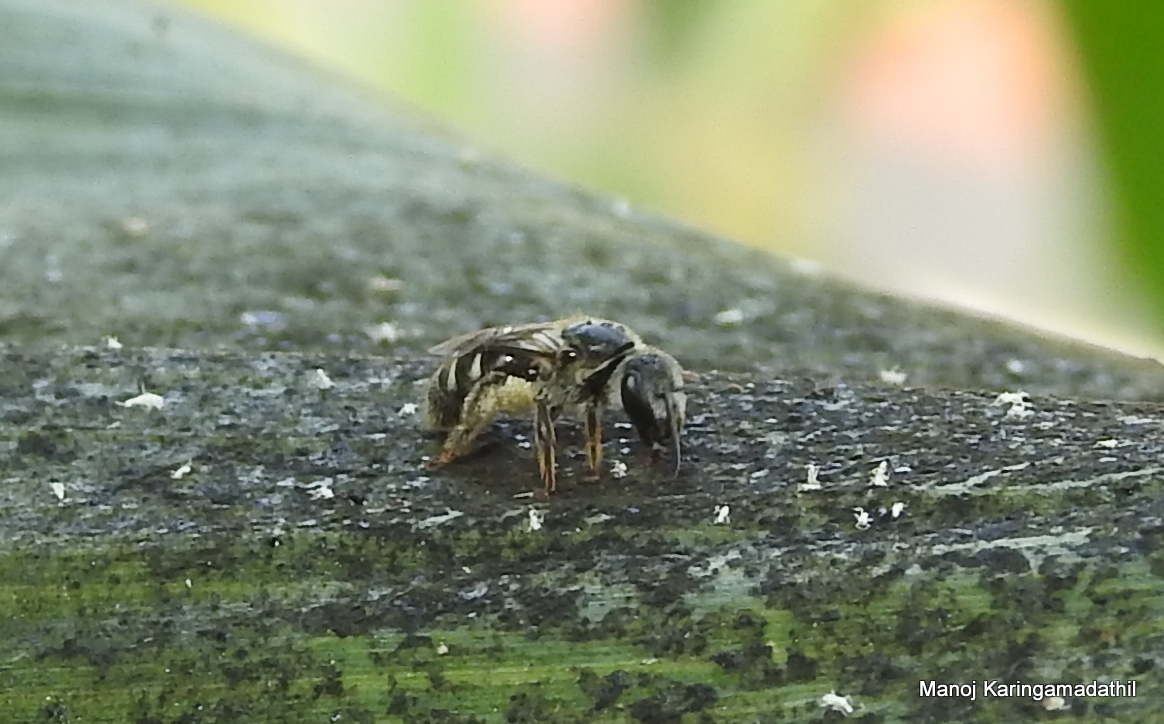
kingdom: Animalia
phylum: Arthropoda
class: Insecta
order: Hymenoptera
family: Halictidae
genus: Lasioglossum
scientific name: Lasioglossum albescens
